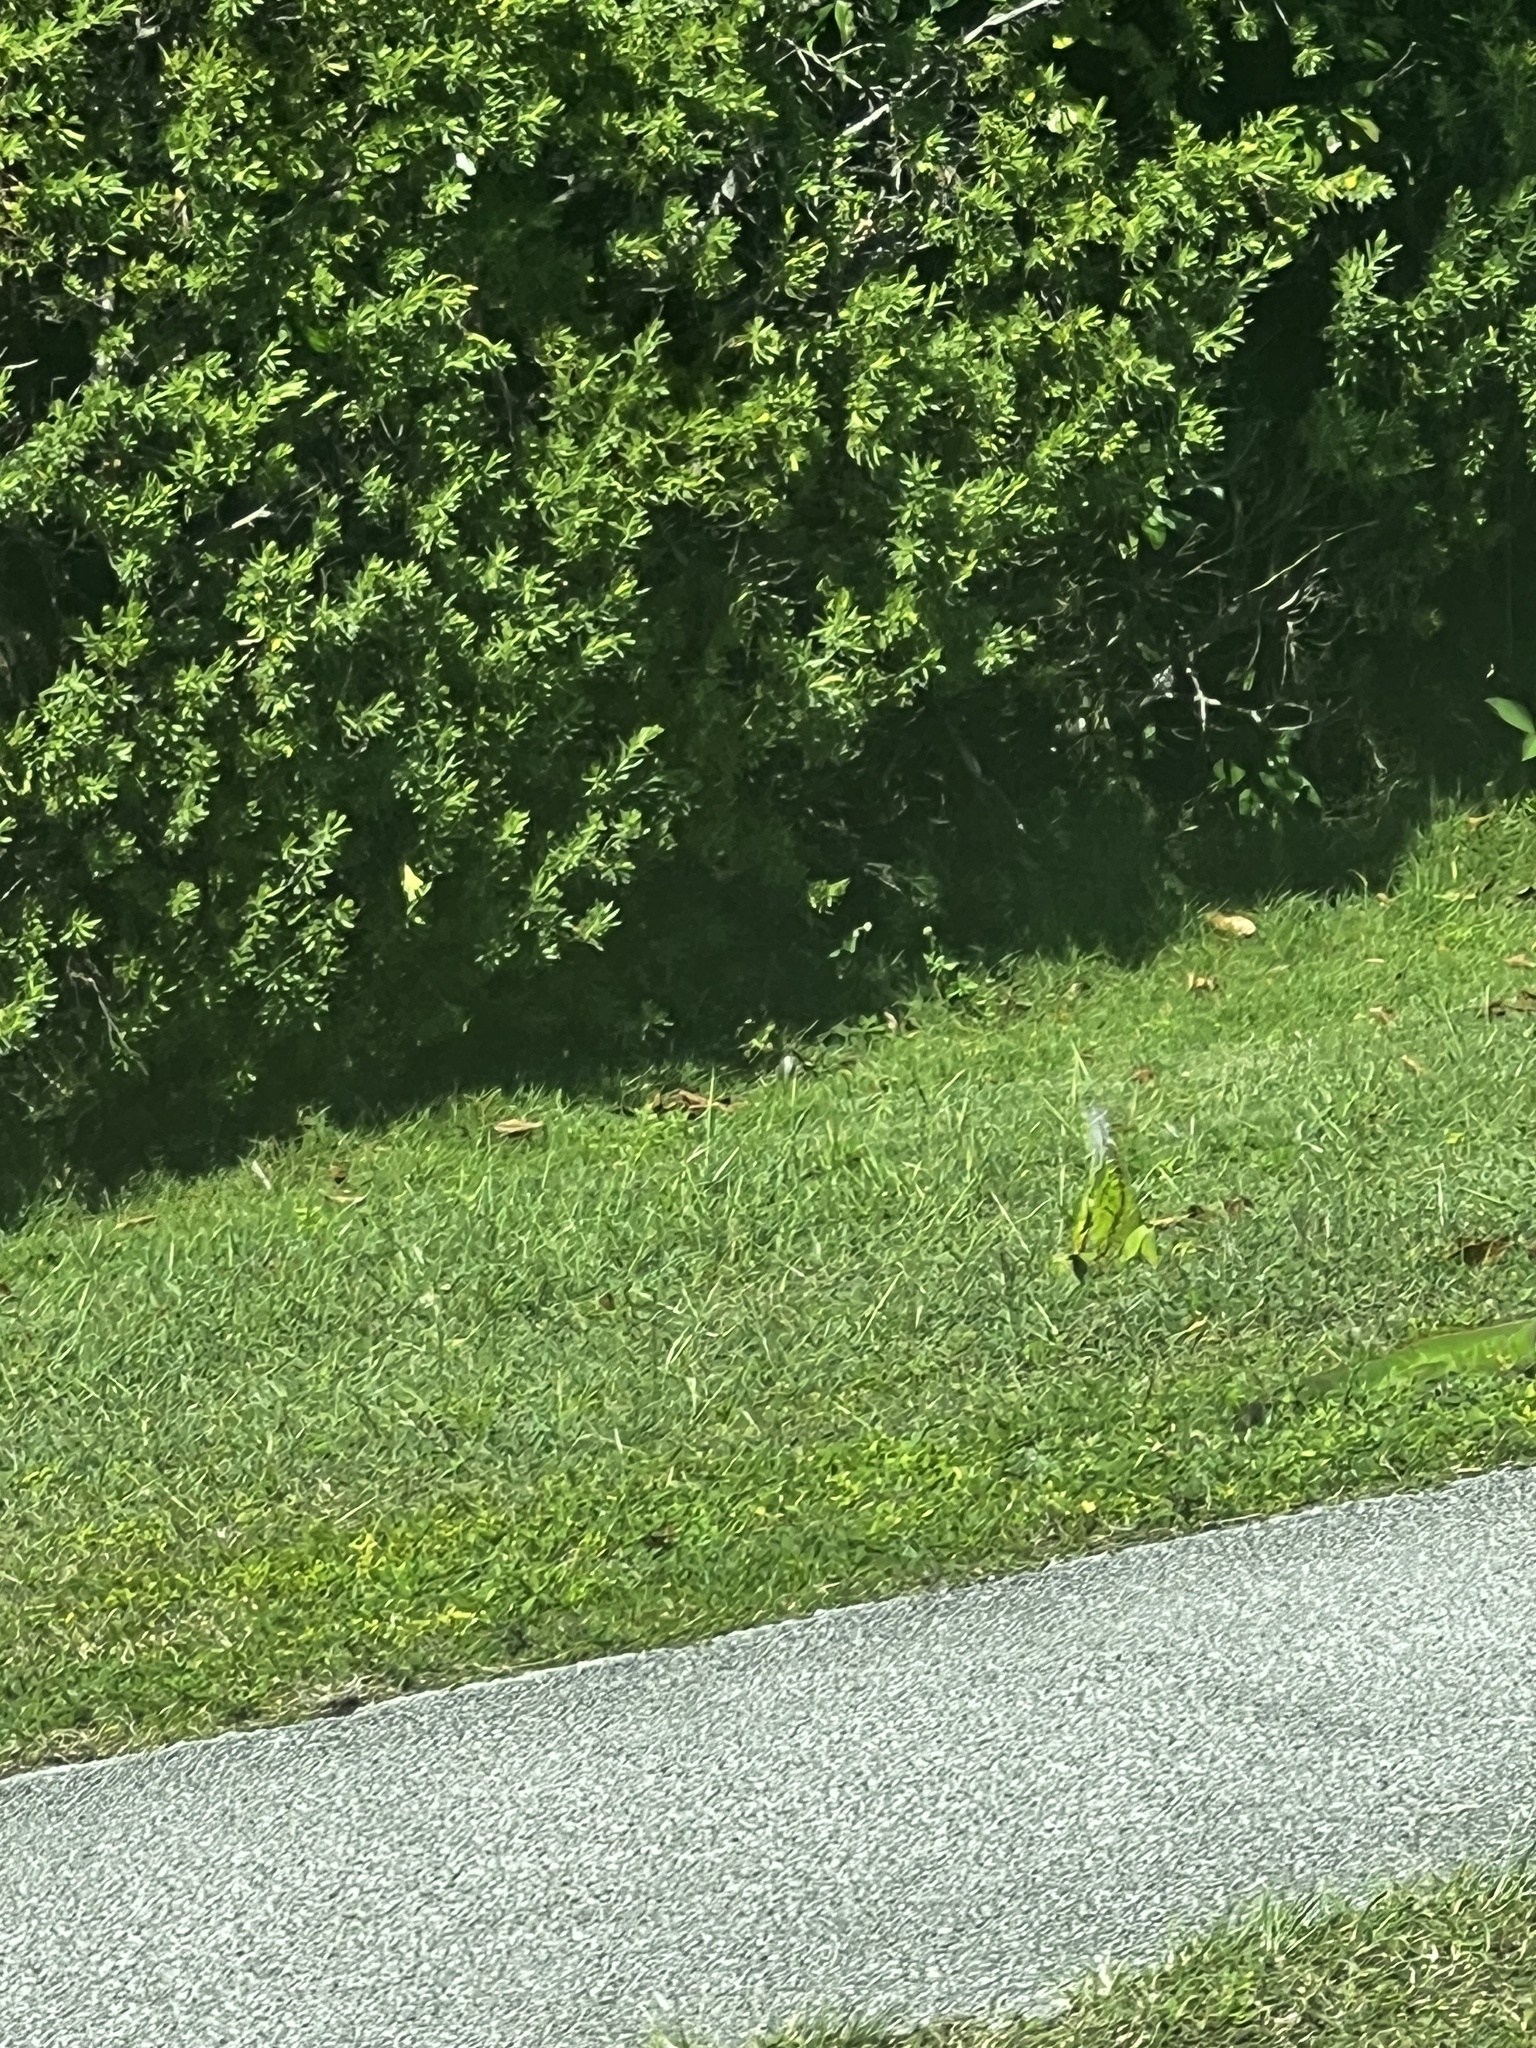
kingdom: Animalia
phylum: Chordata
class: Squamata
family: Iguanidae
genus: Iguana
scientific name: Iguana iguana
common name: Green iguana
